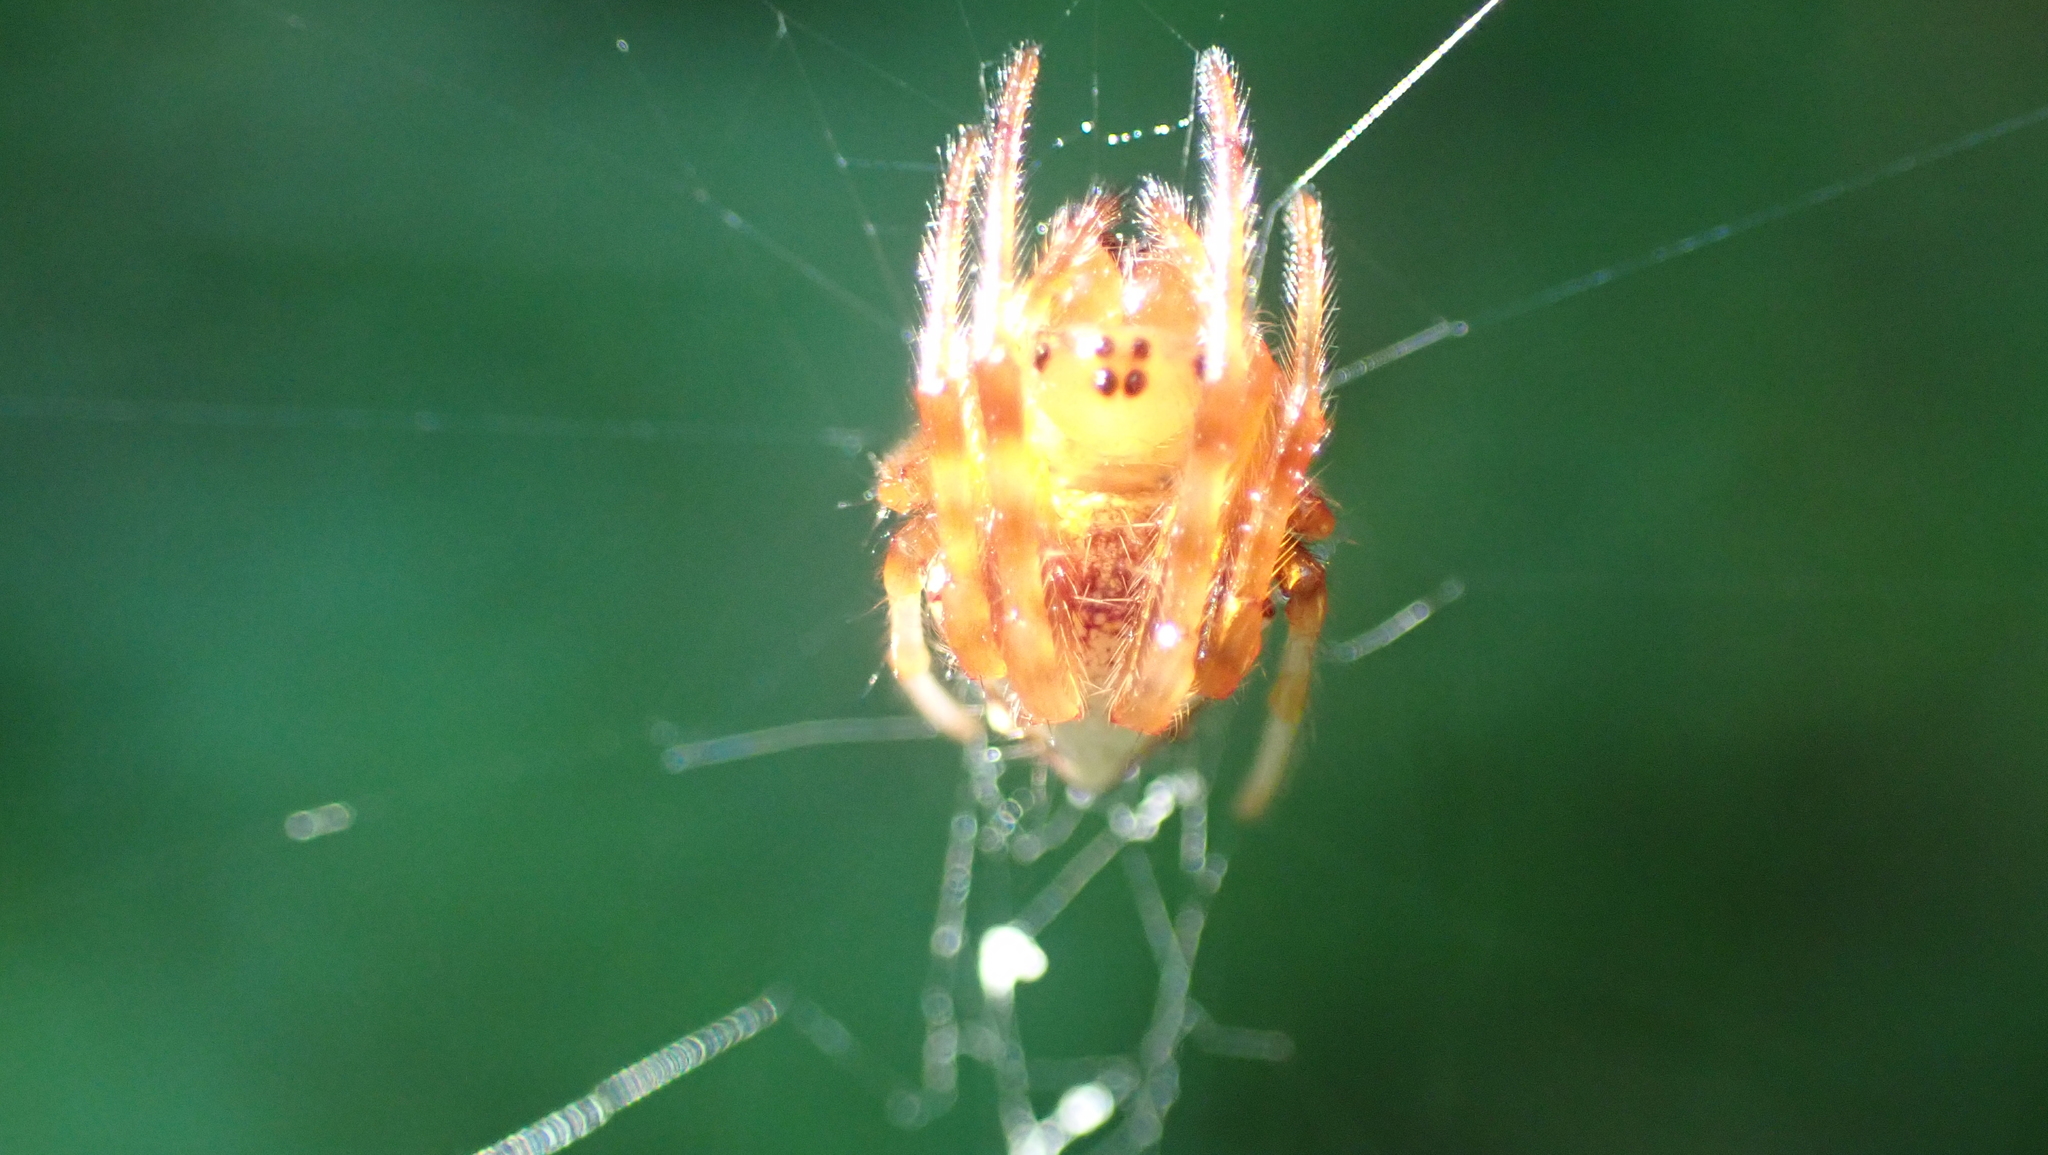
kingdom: Animalia
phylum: Arthropoda
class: Arachnida
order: Araneae
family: Araneidae
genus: Verrucosa
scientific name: Verrucosa arenata
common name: Orb weavers
